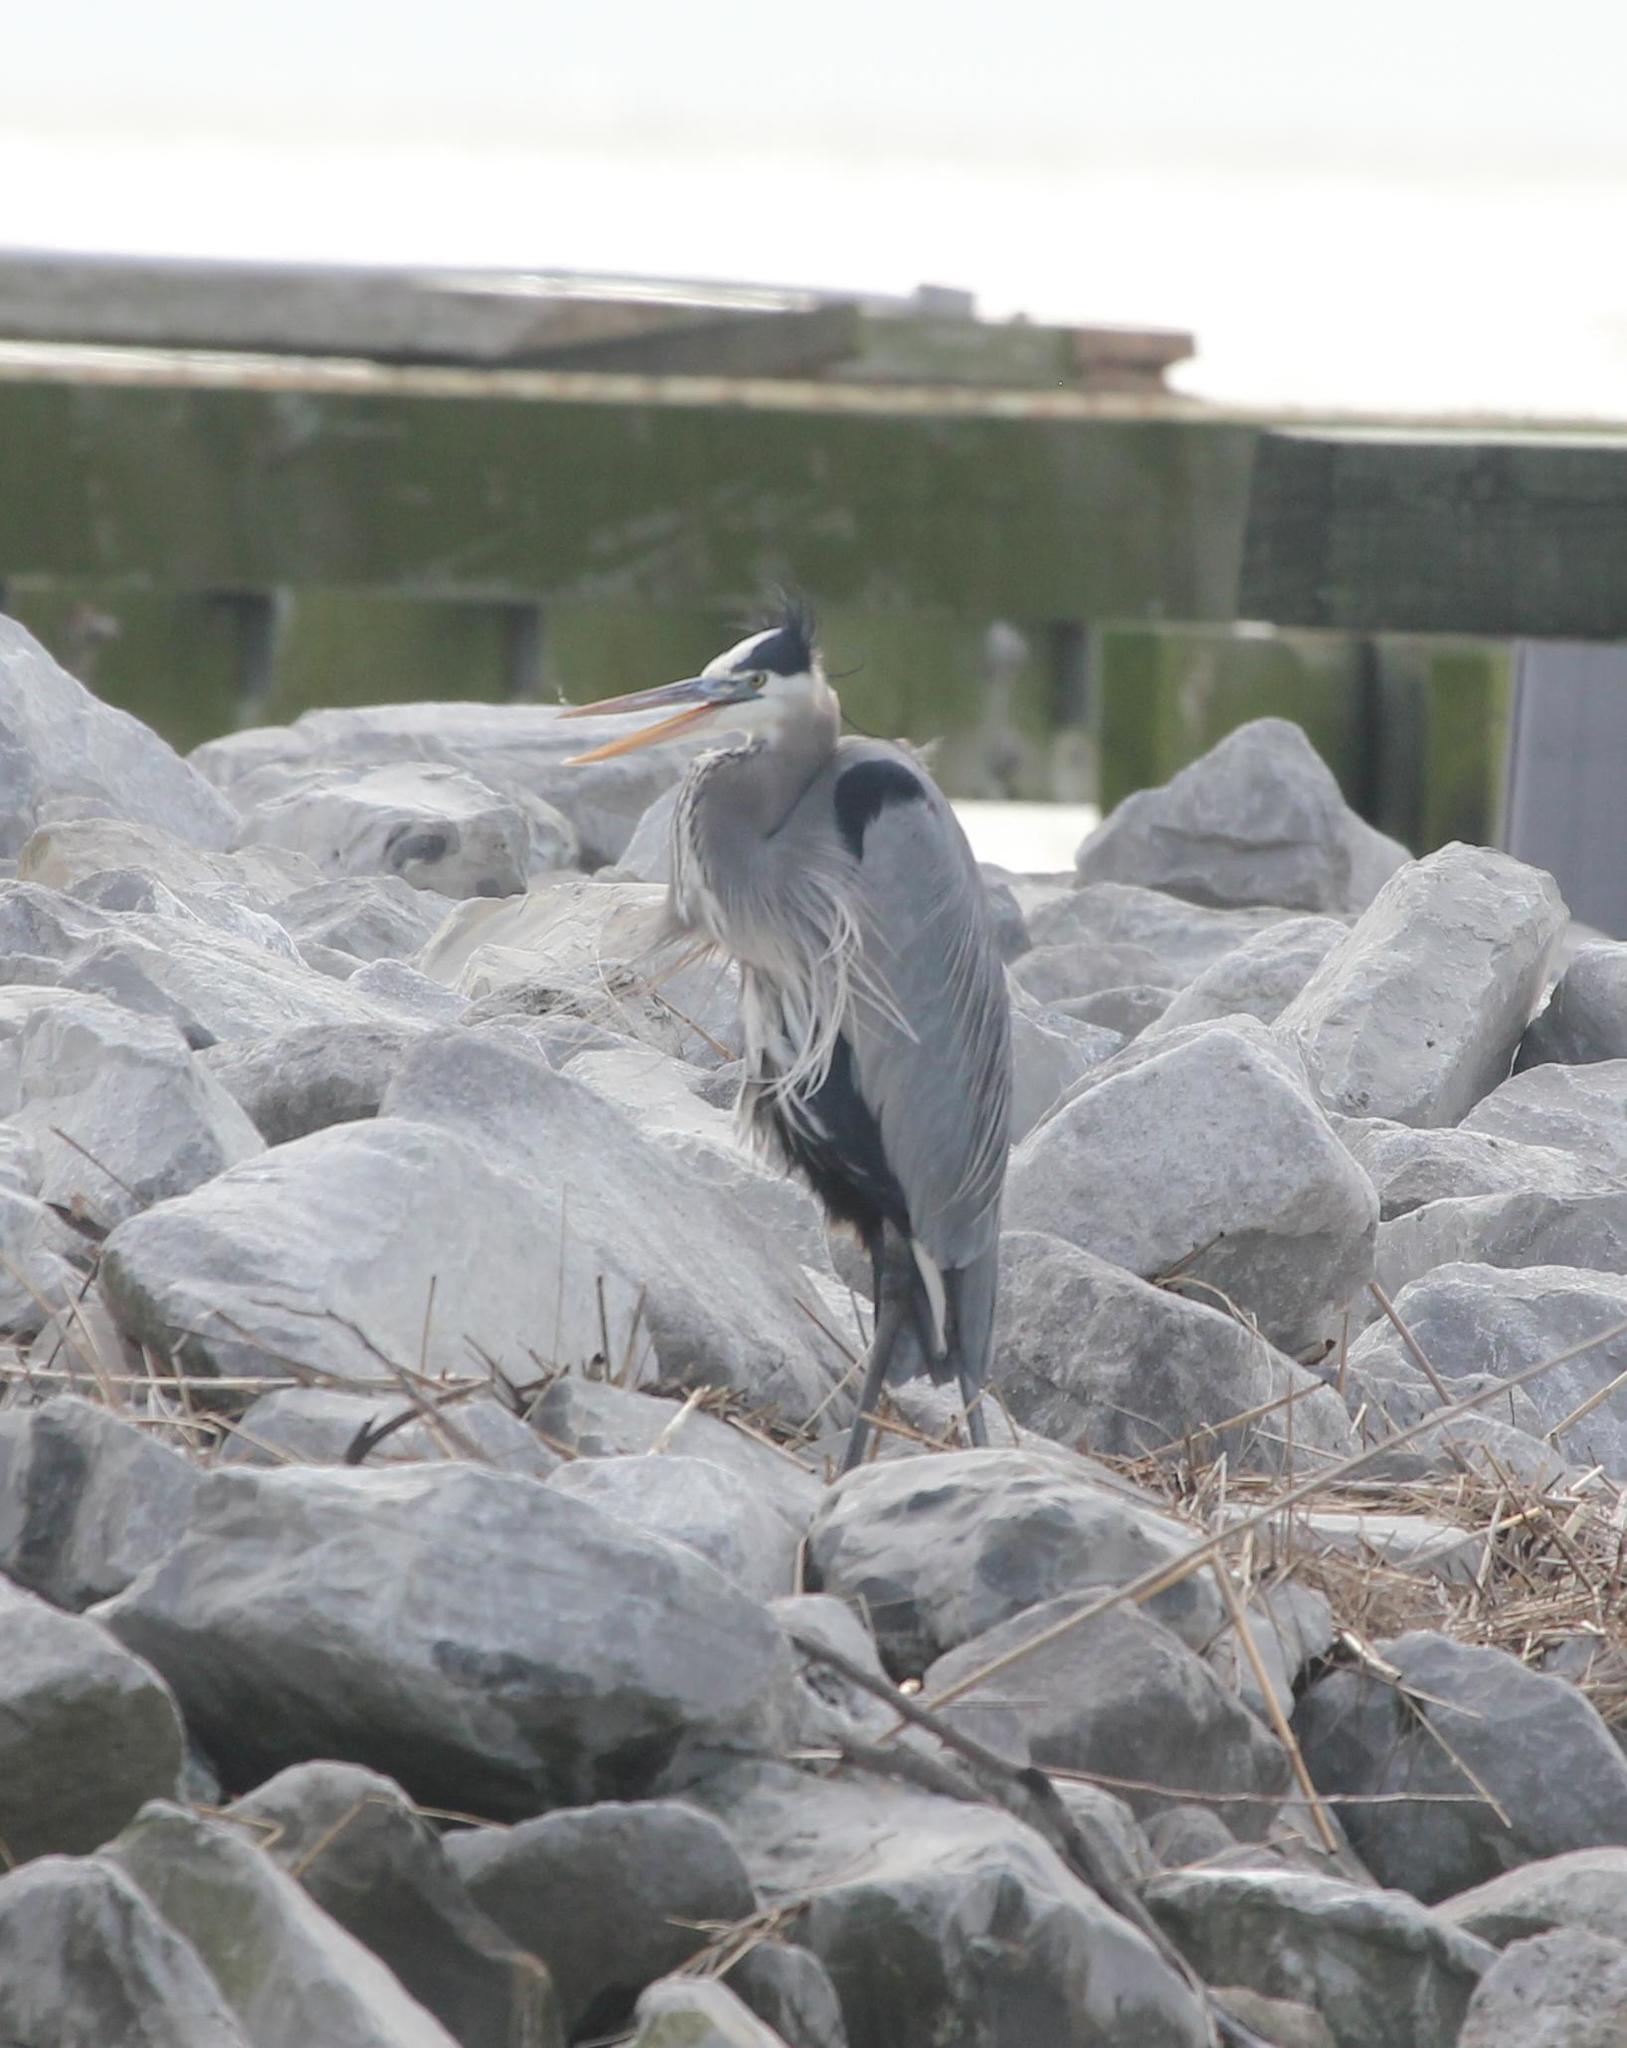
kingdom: Animalia
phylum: Chordata
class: Aves
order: Pelecaniformes
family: Ardeidae
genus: Ardea
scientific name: Ardea herodias
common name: Great blue heron
